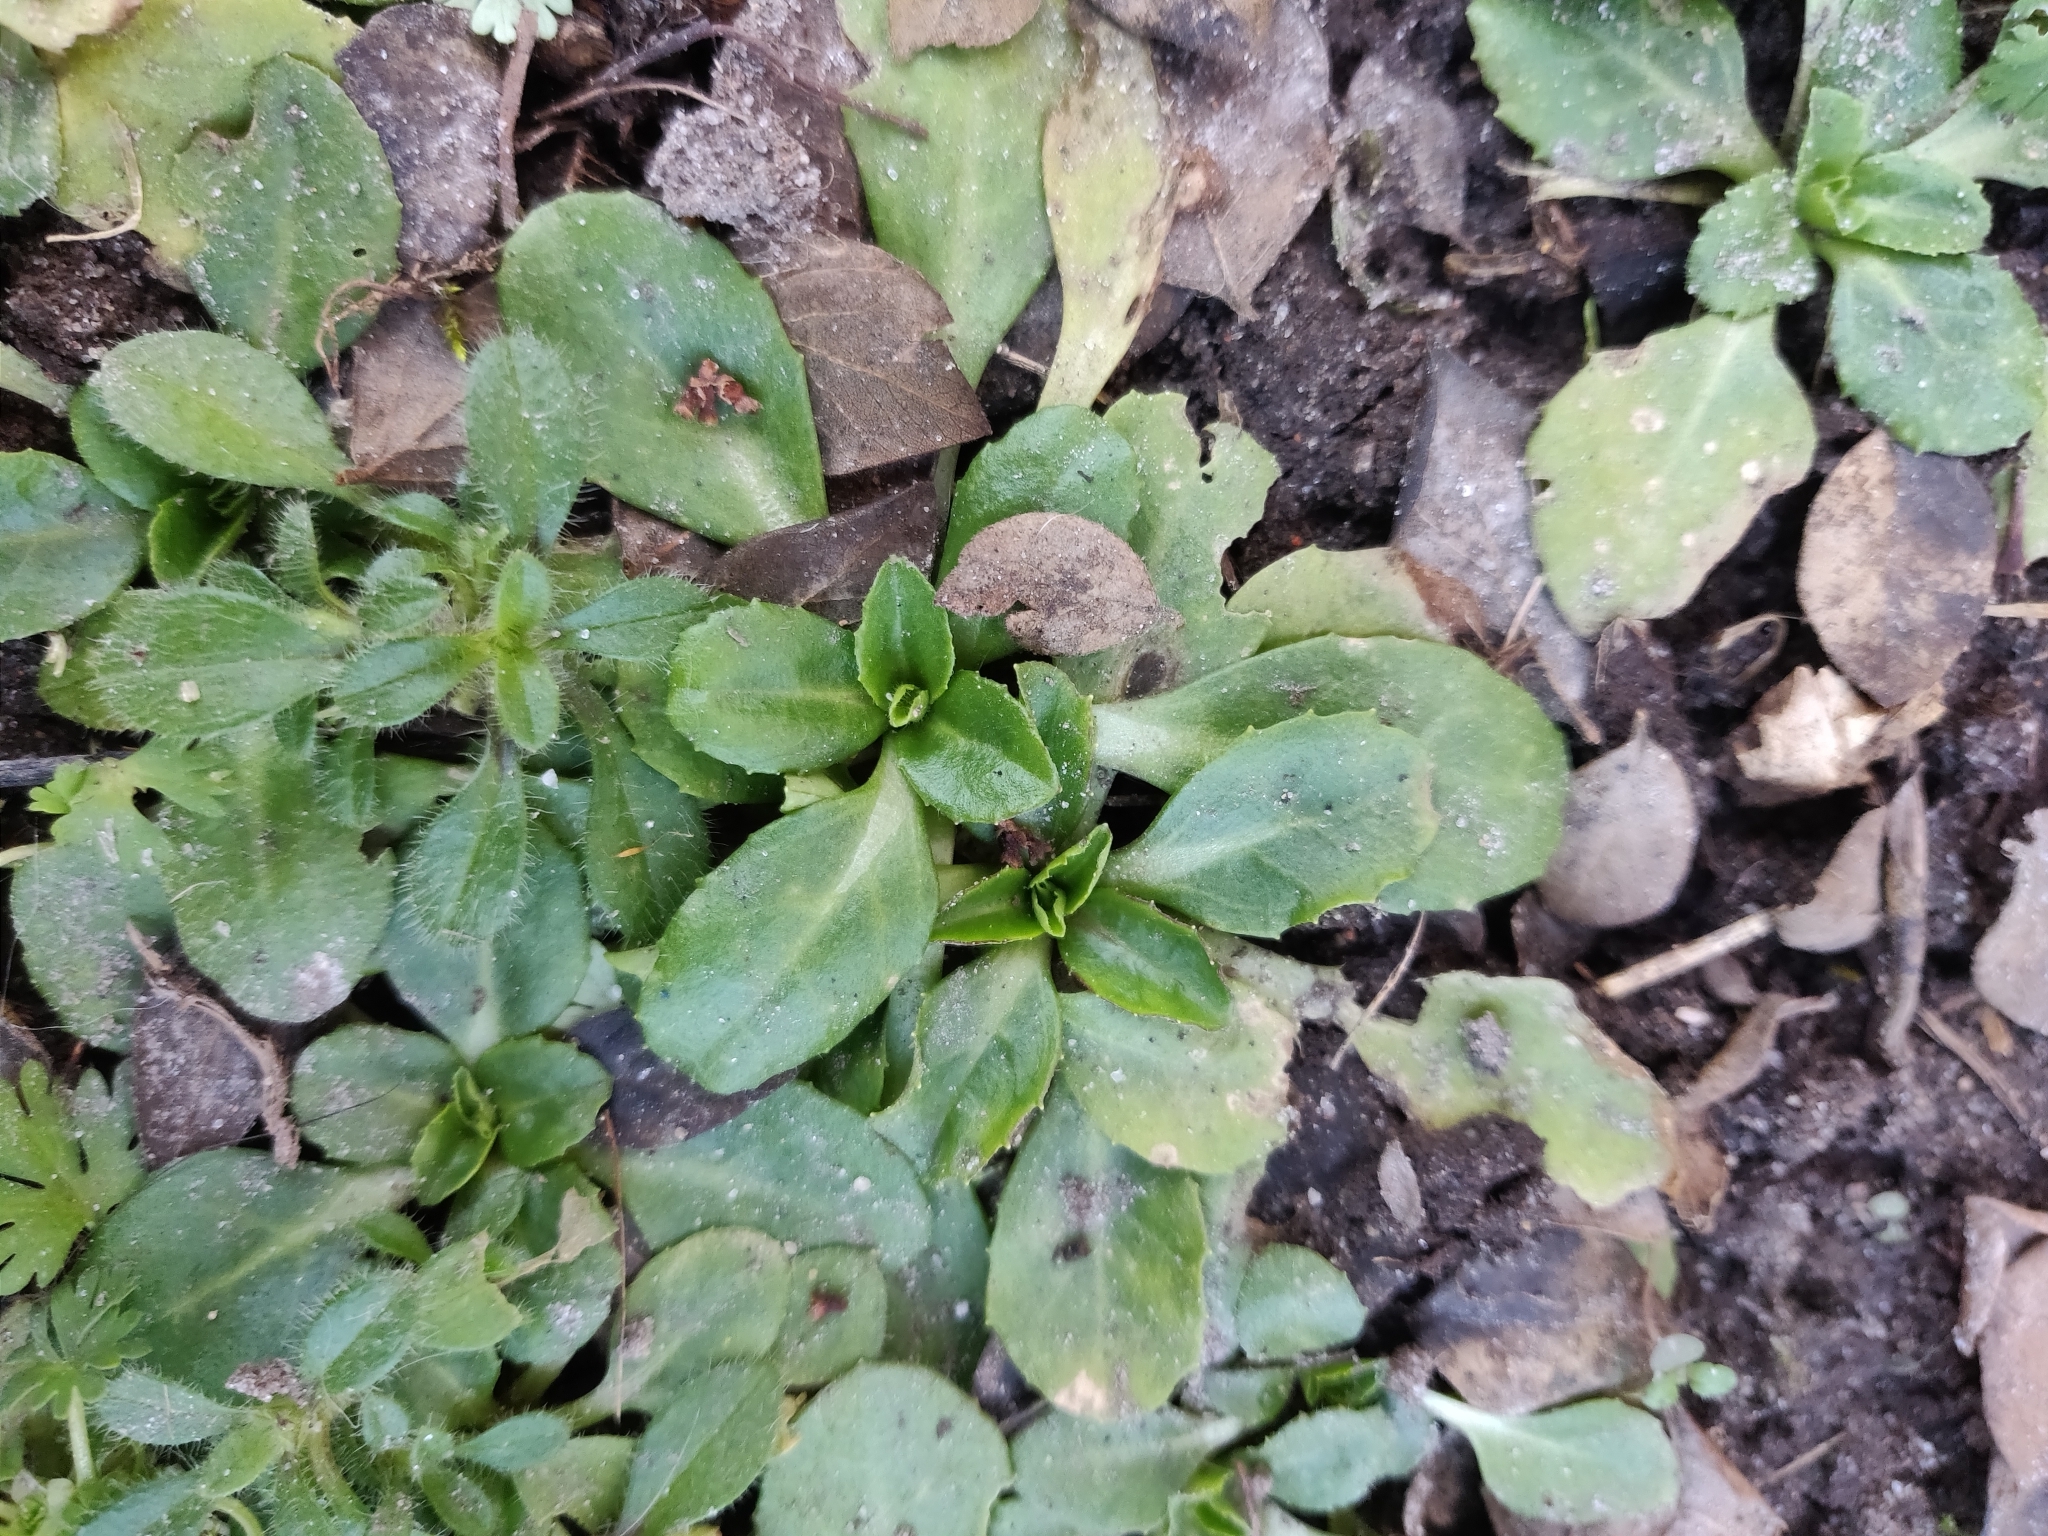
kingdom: Plantae
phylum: Tracheophyta
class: Magnoliopsida
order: Asterales
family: Asteraceae
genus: Bellis
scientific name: Bellis perennis
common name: Lawndaisy
